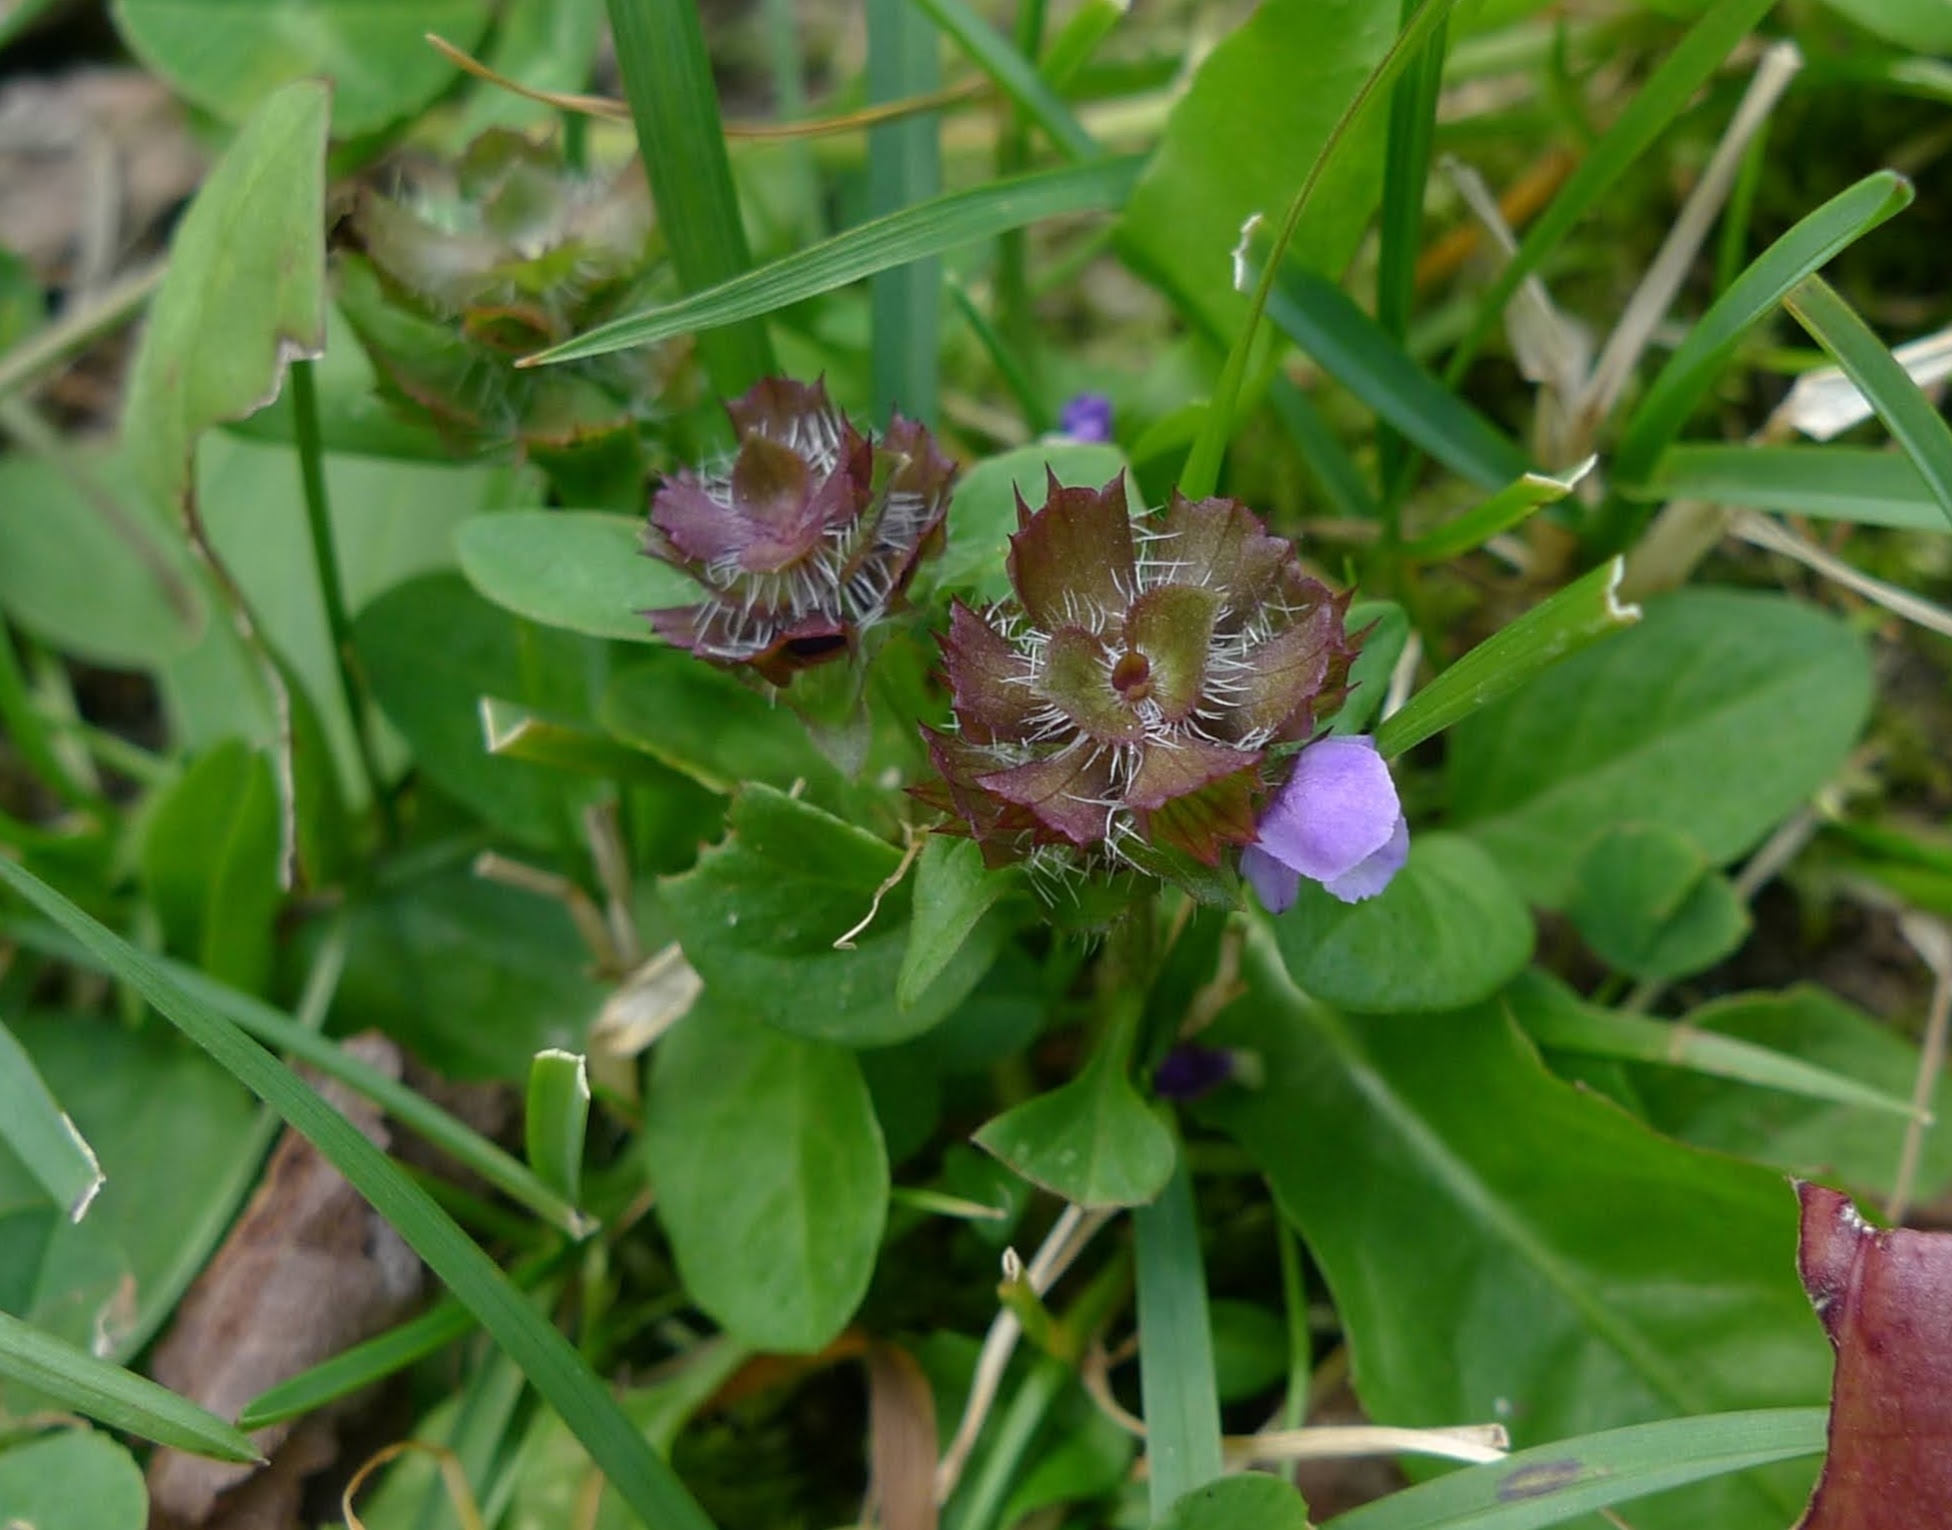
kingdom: Plantae
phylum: Tracheophyta
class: Magnoliopsida
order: Lamiales
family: Lamiaceae
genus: Prunella
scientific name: Prunella vulgaris
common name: Heal-all
